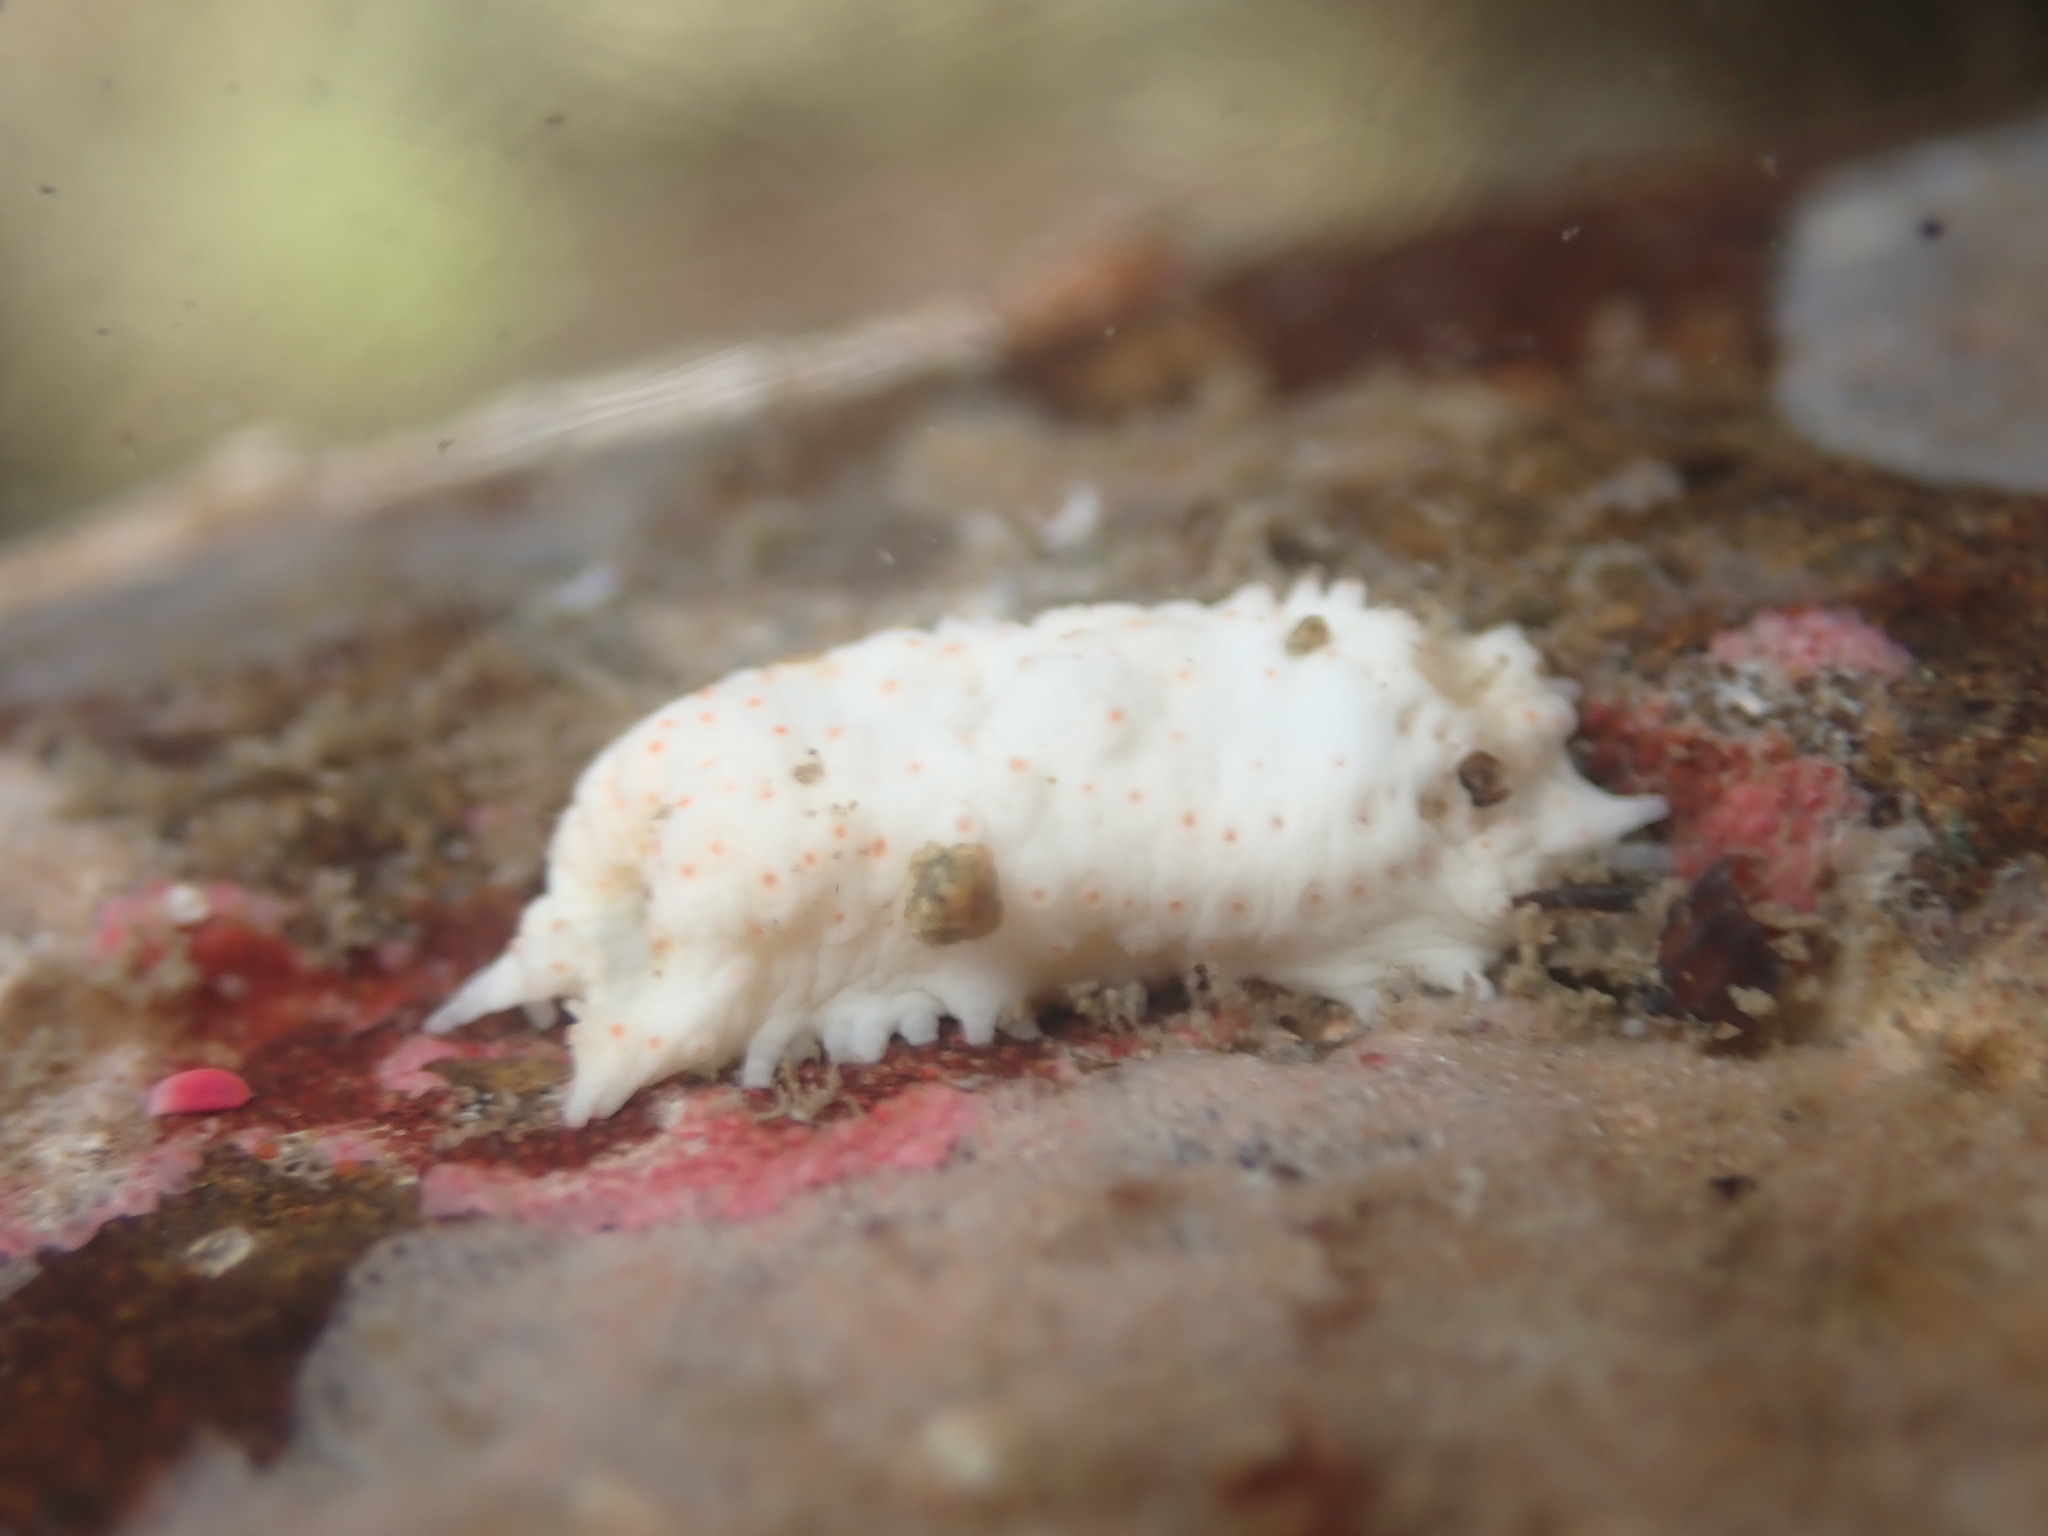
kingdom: Animalia
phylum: Echinodermata
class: Holothuroidea
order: Dendrochirotida
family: Cucumariidae
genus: Australocnus
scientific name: Australocnus calcareus
